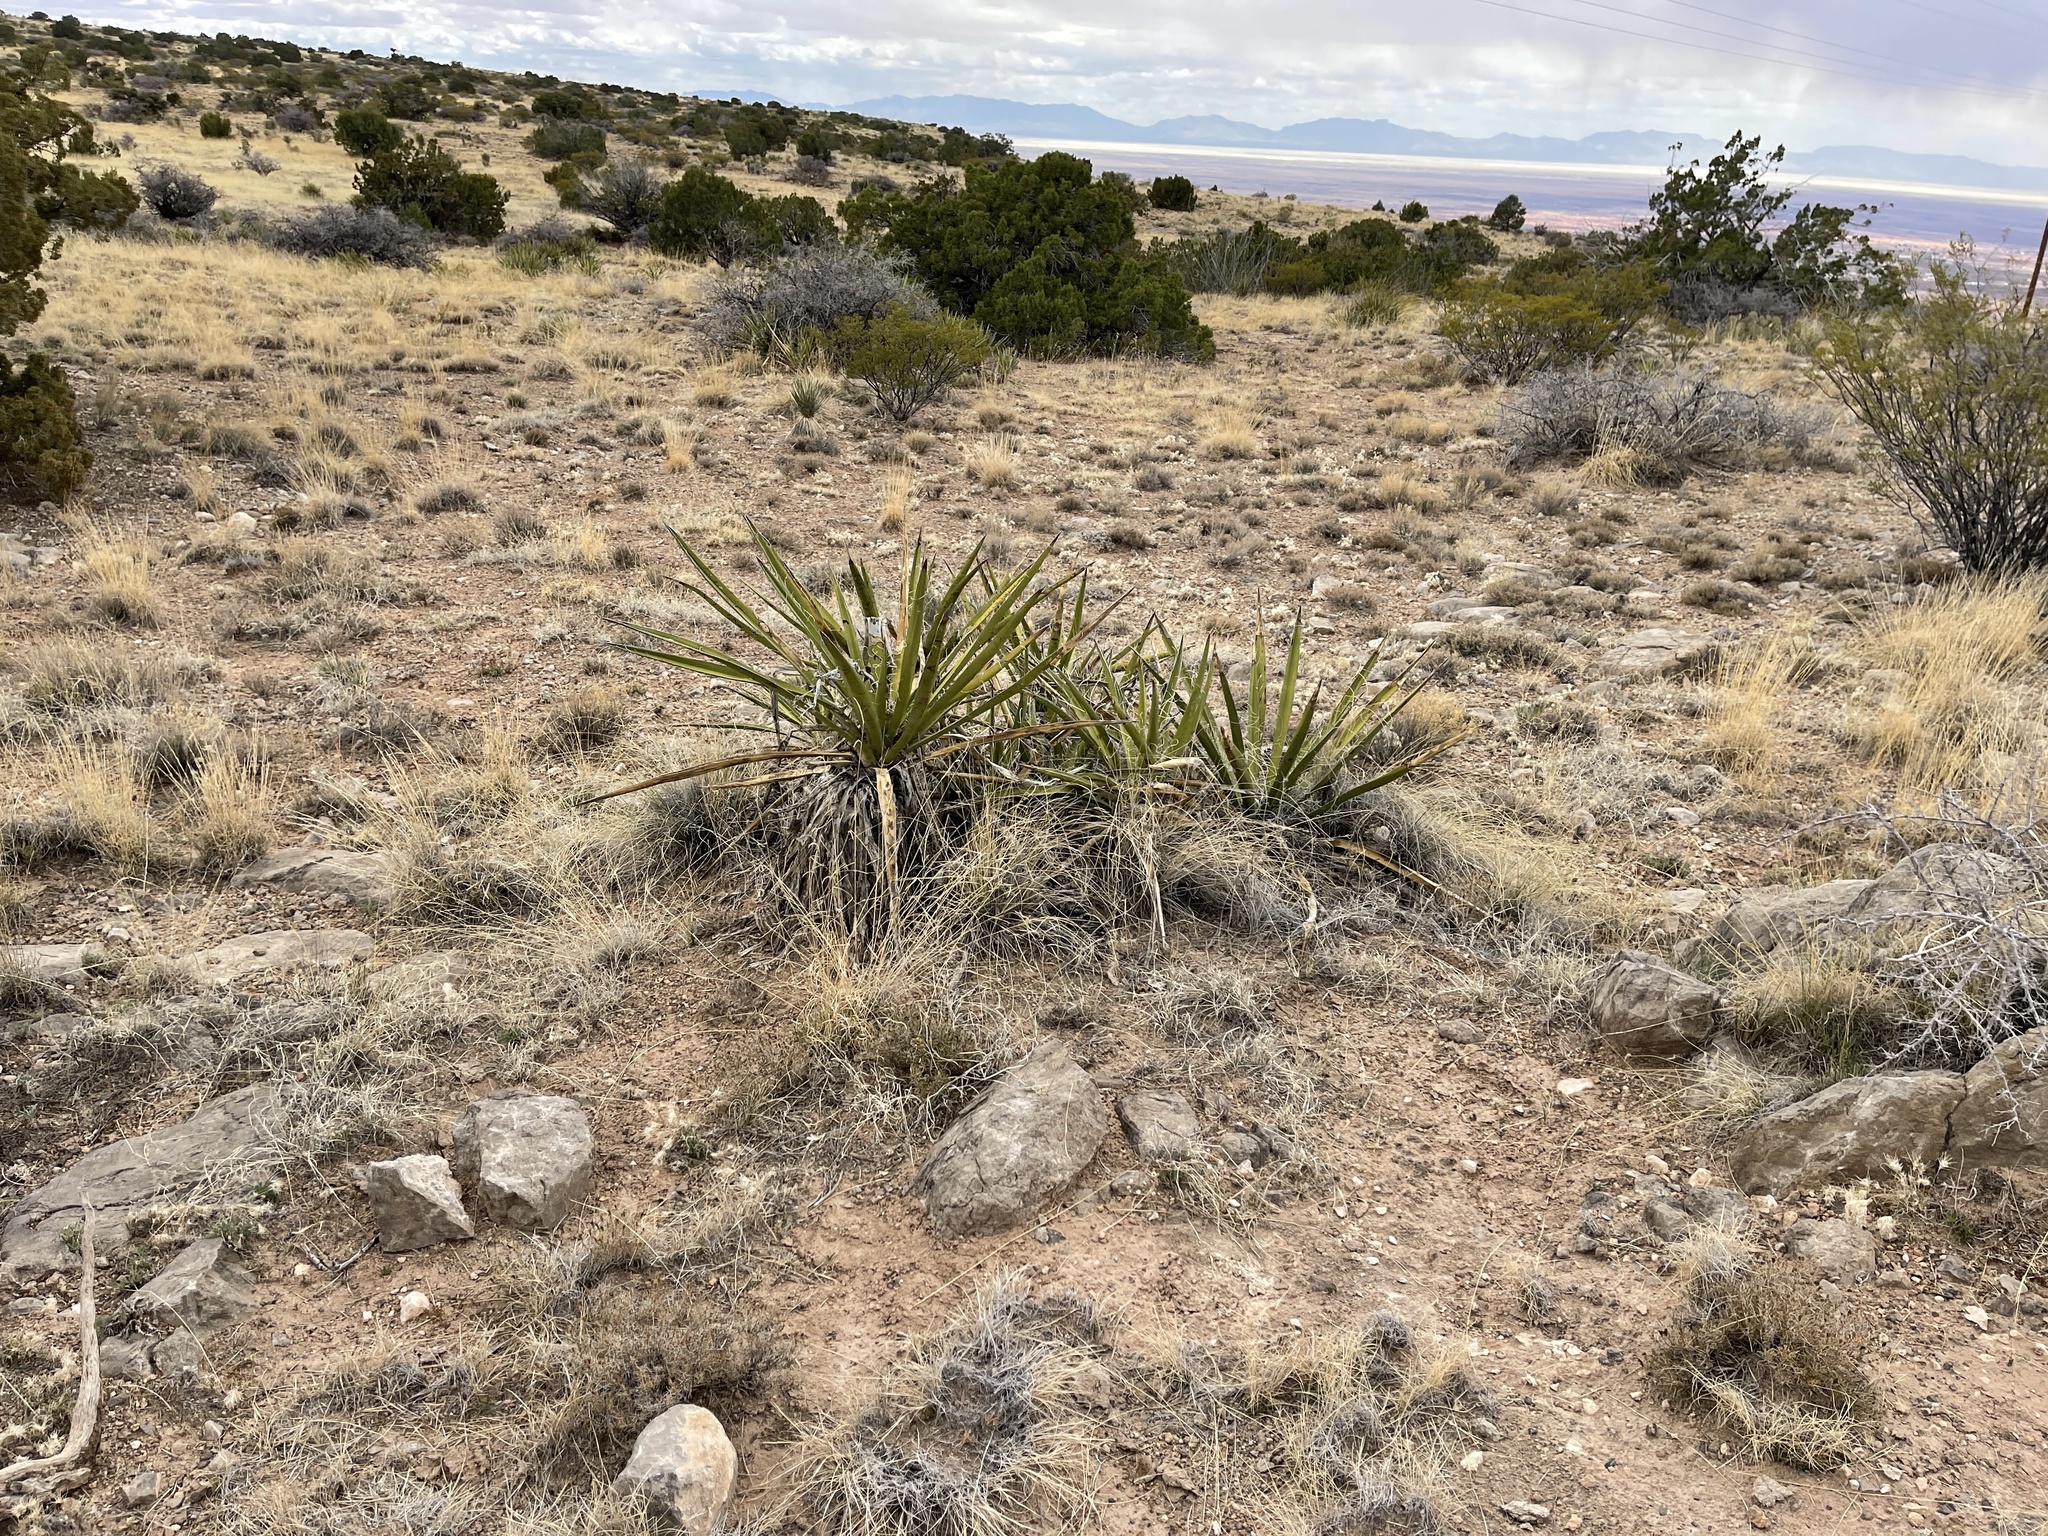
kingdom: Plantae
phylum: Tracheophyta
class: Liliopsida
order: Asparagales
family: Asparagaceae
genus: Yucca
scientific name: Yucca baccata
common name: Banana yucca
